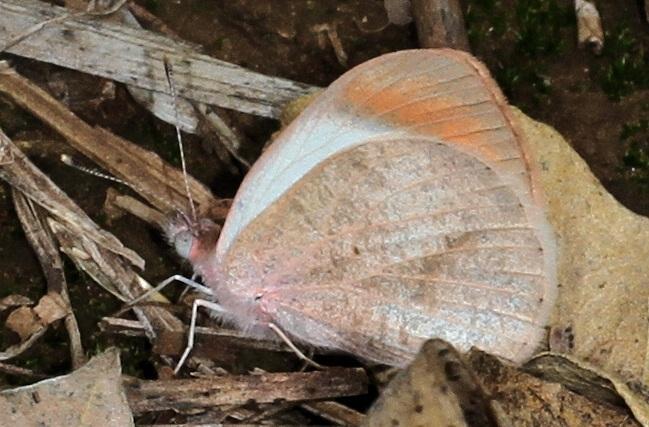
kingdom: Animalia
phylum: Arthropoda
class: Insecta
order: Lepidoptera
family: Pieridae
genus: Colotis
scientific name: Colotis euippe
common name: Round-winged orange tip
